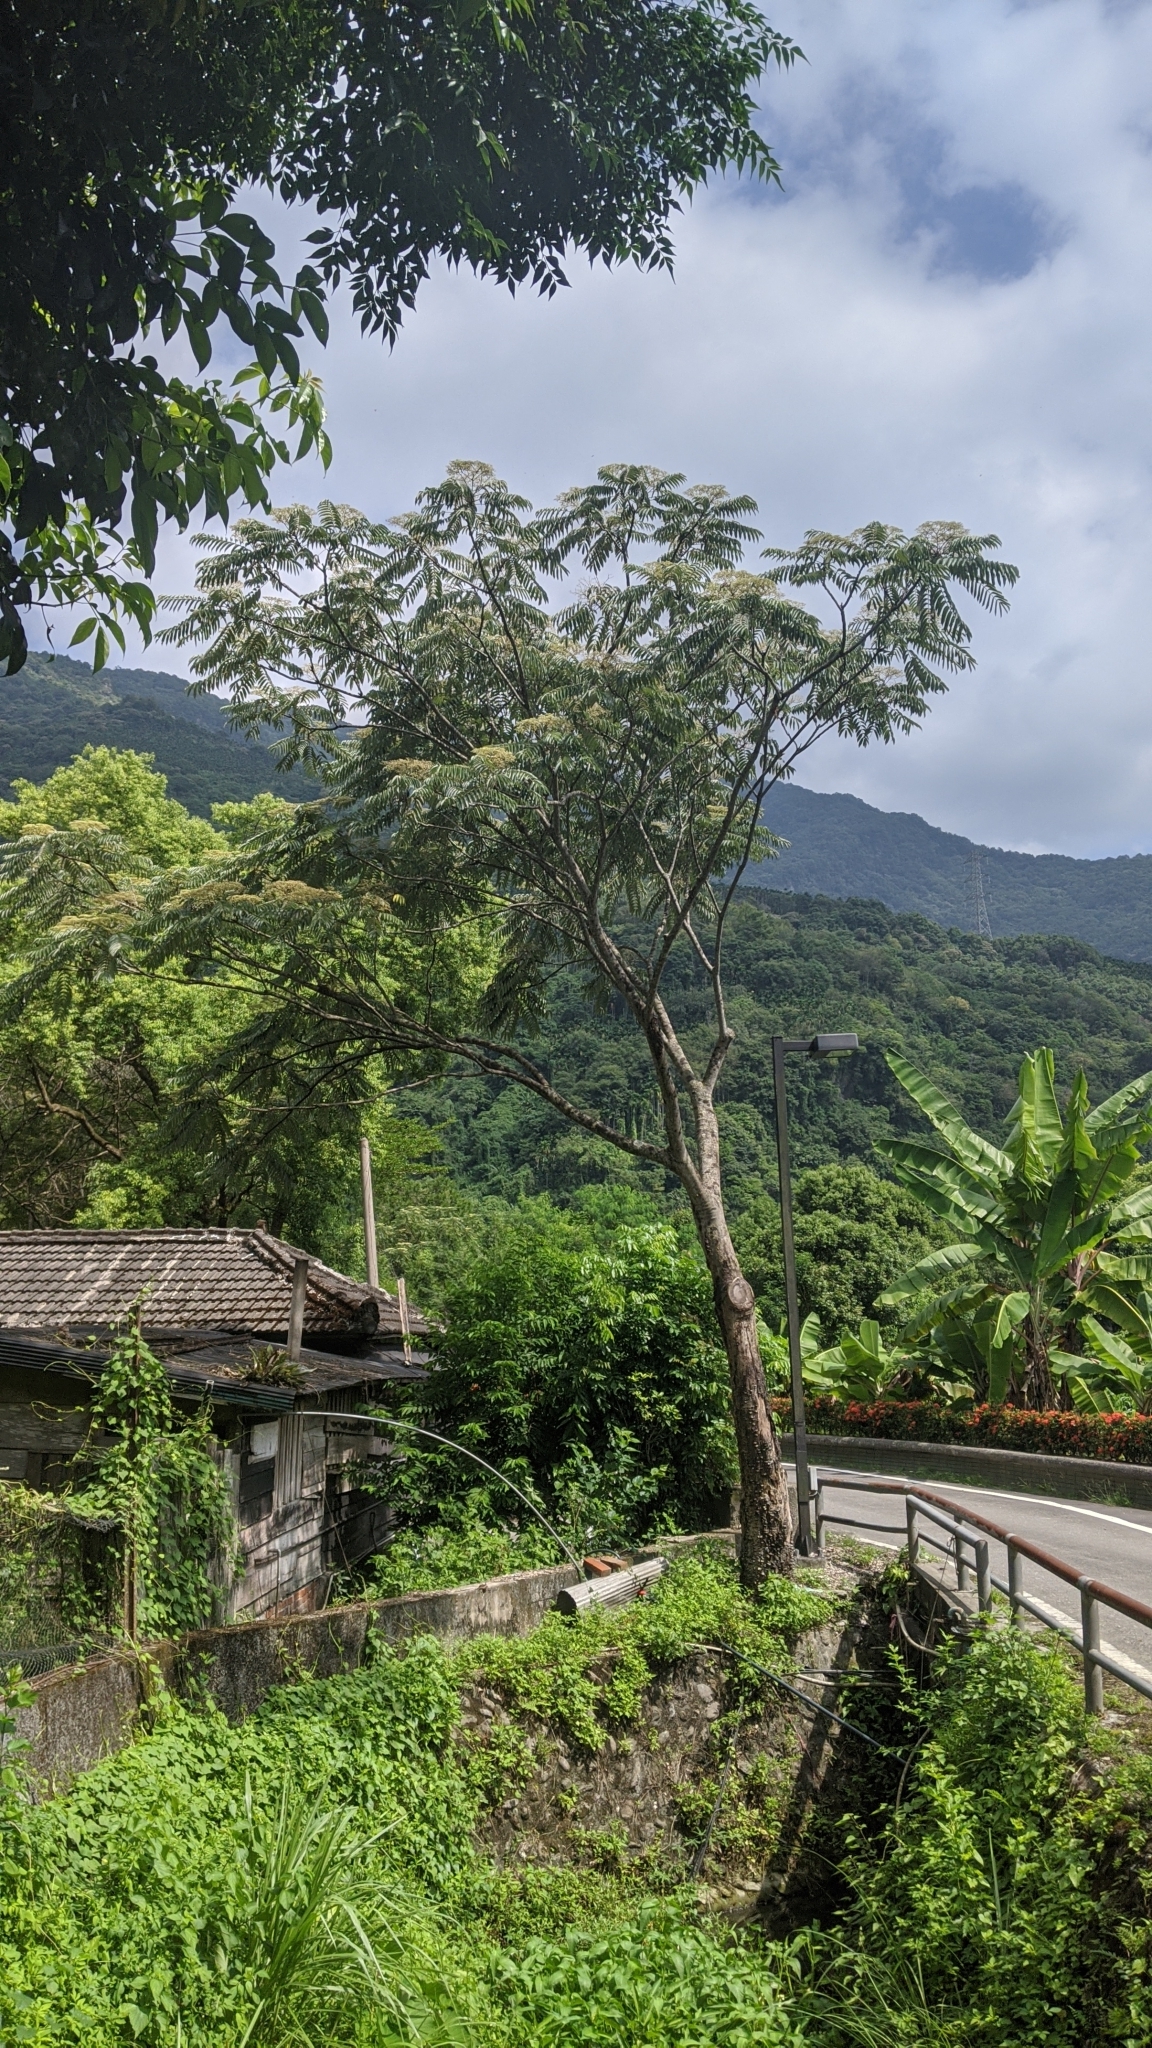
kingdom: Plantae
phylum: Tracheophyta
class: Magnoliopsida
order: Sapindales
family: Rutaceae
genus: Zanthoxylum
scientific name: Zanthoxylum ailanthoides
